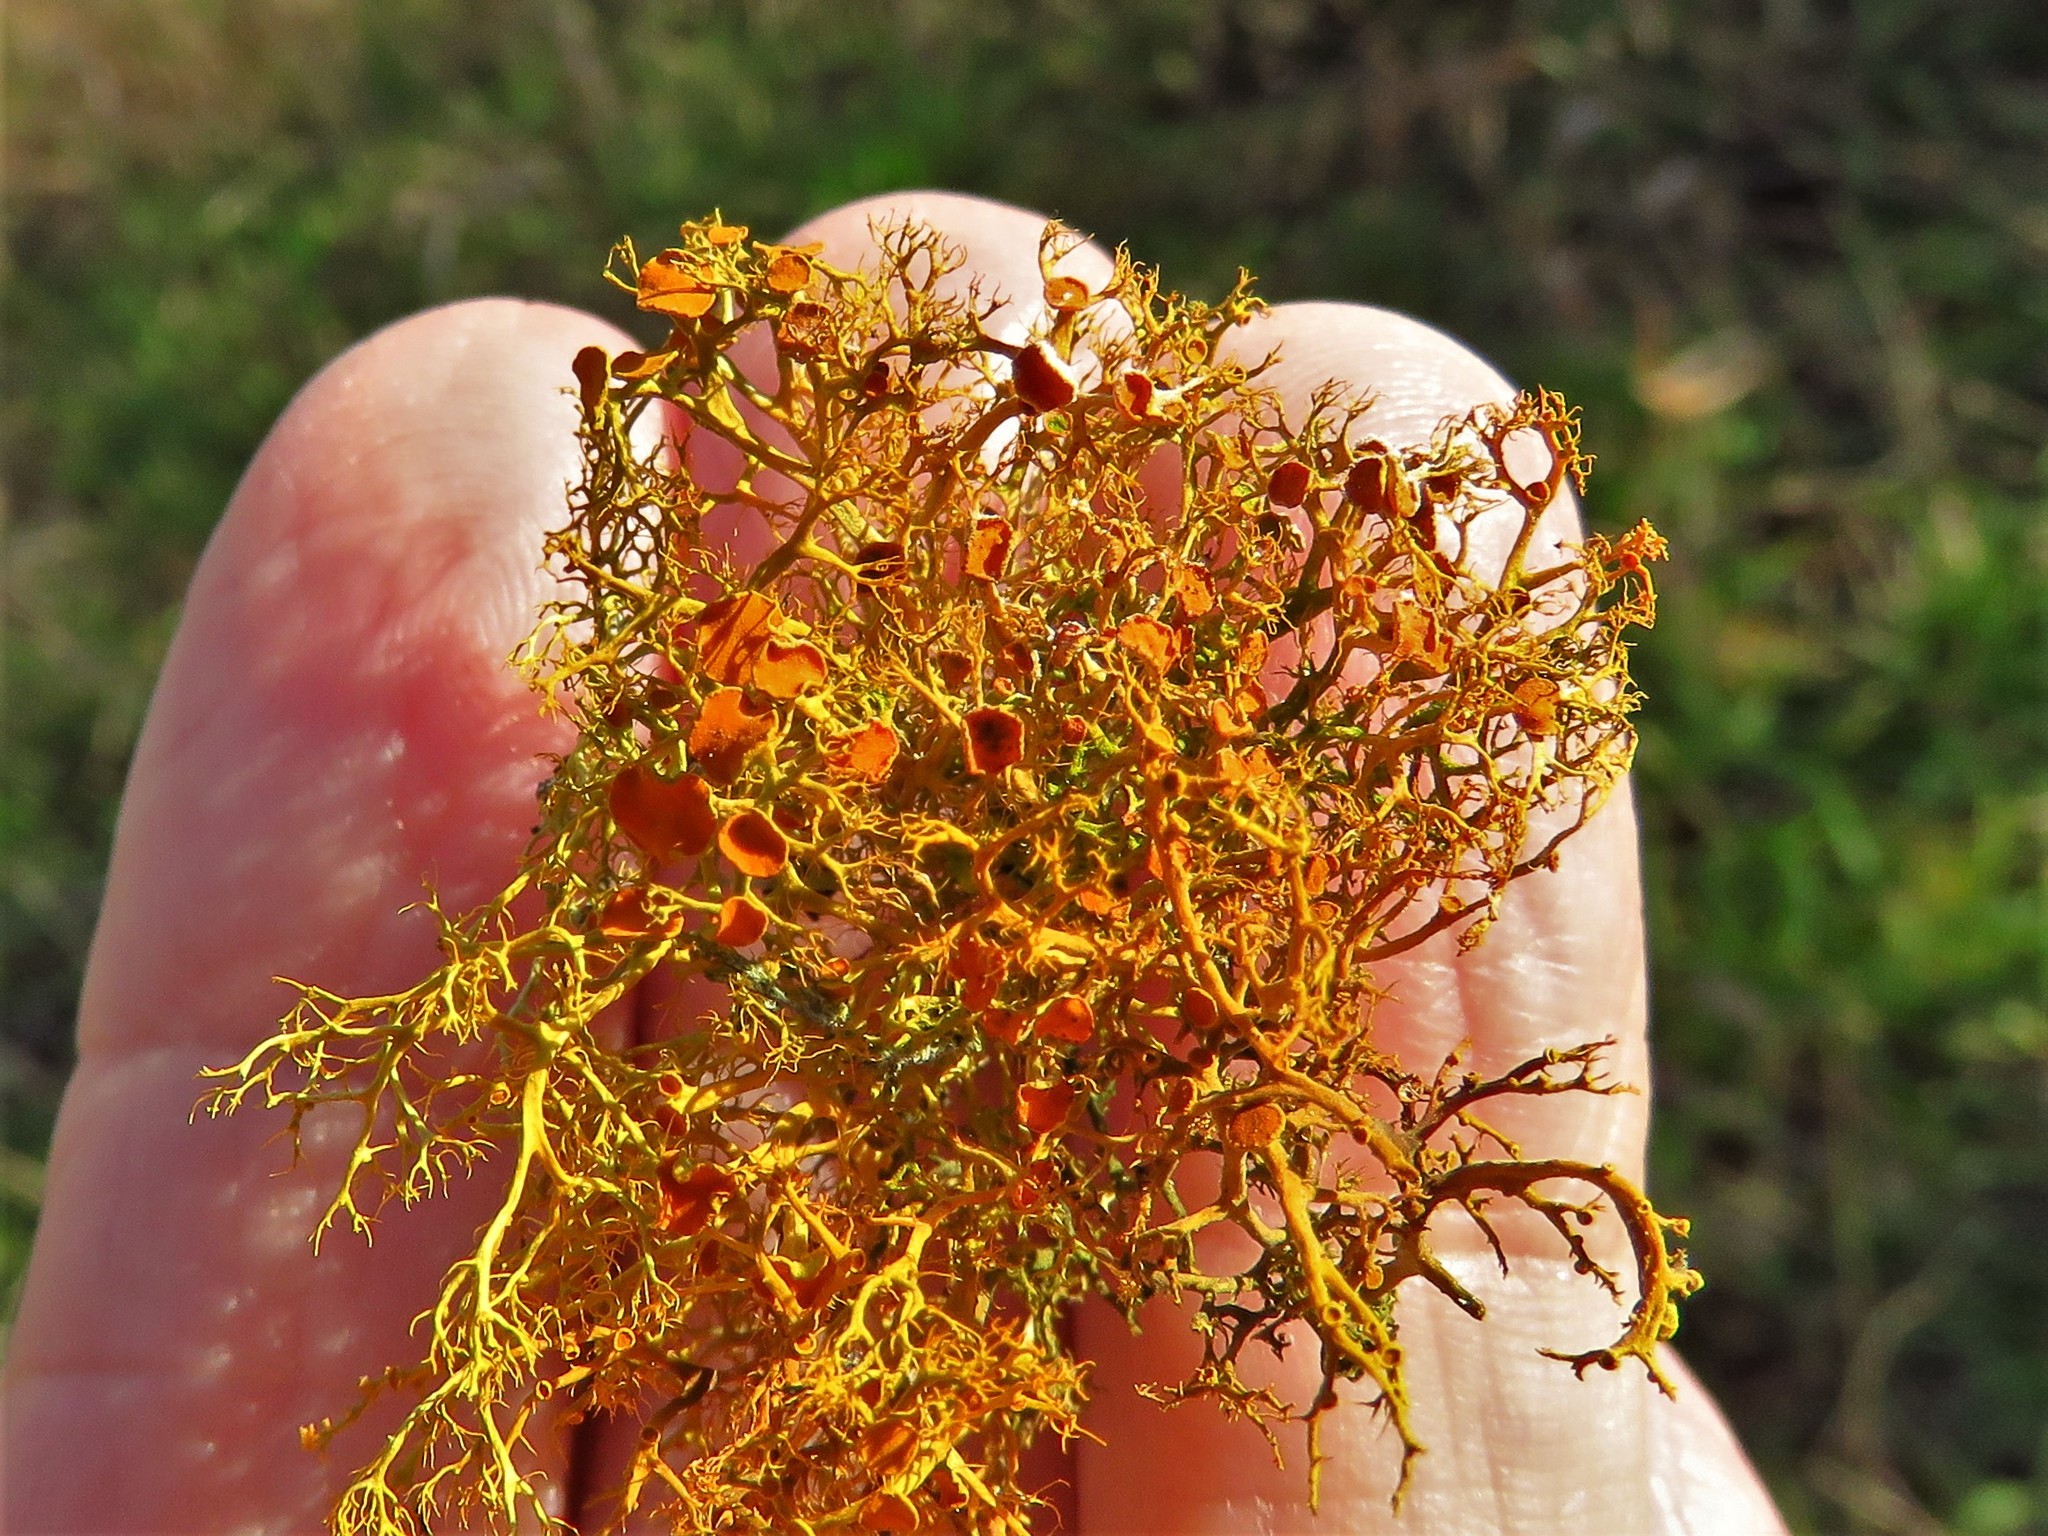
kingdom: Fungi
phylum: Ascomycota
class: Lecanoromycetes
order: Teloschistales
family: Teloschistaceae
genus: Teloschistes
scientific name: Teloschistes exilis
